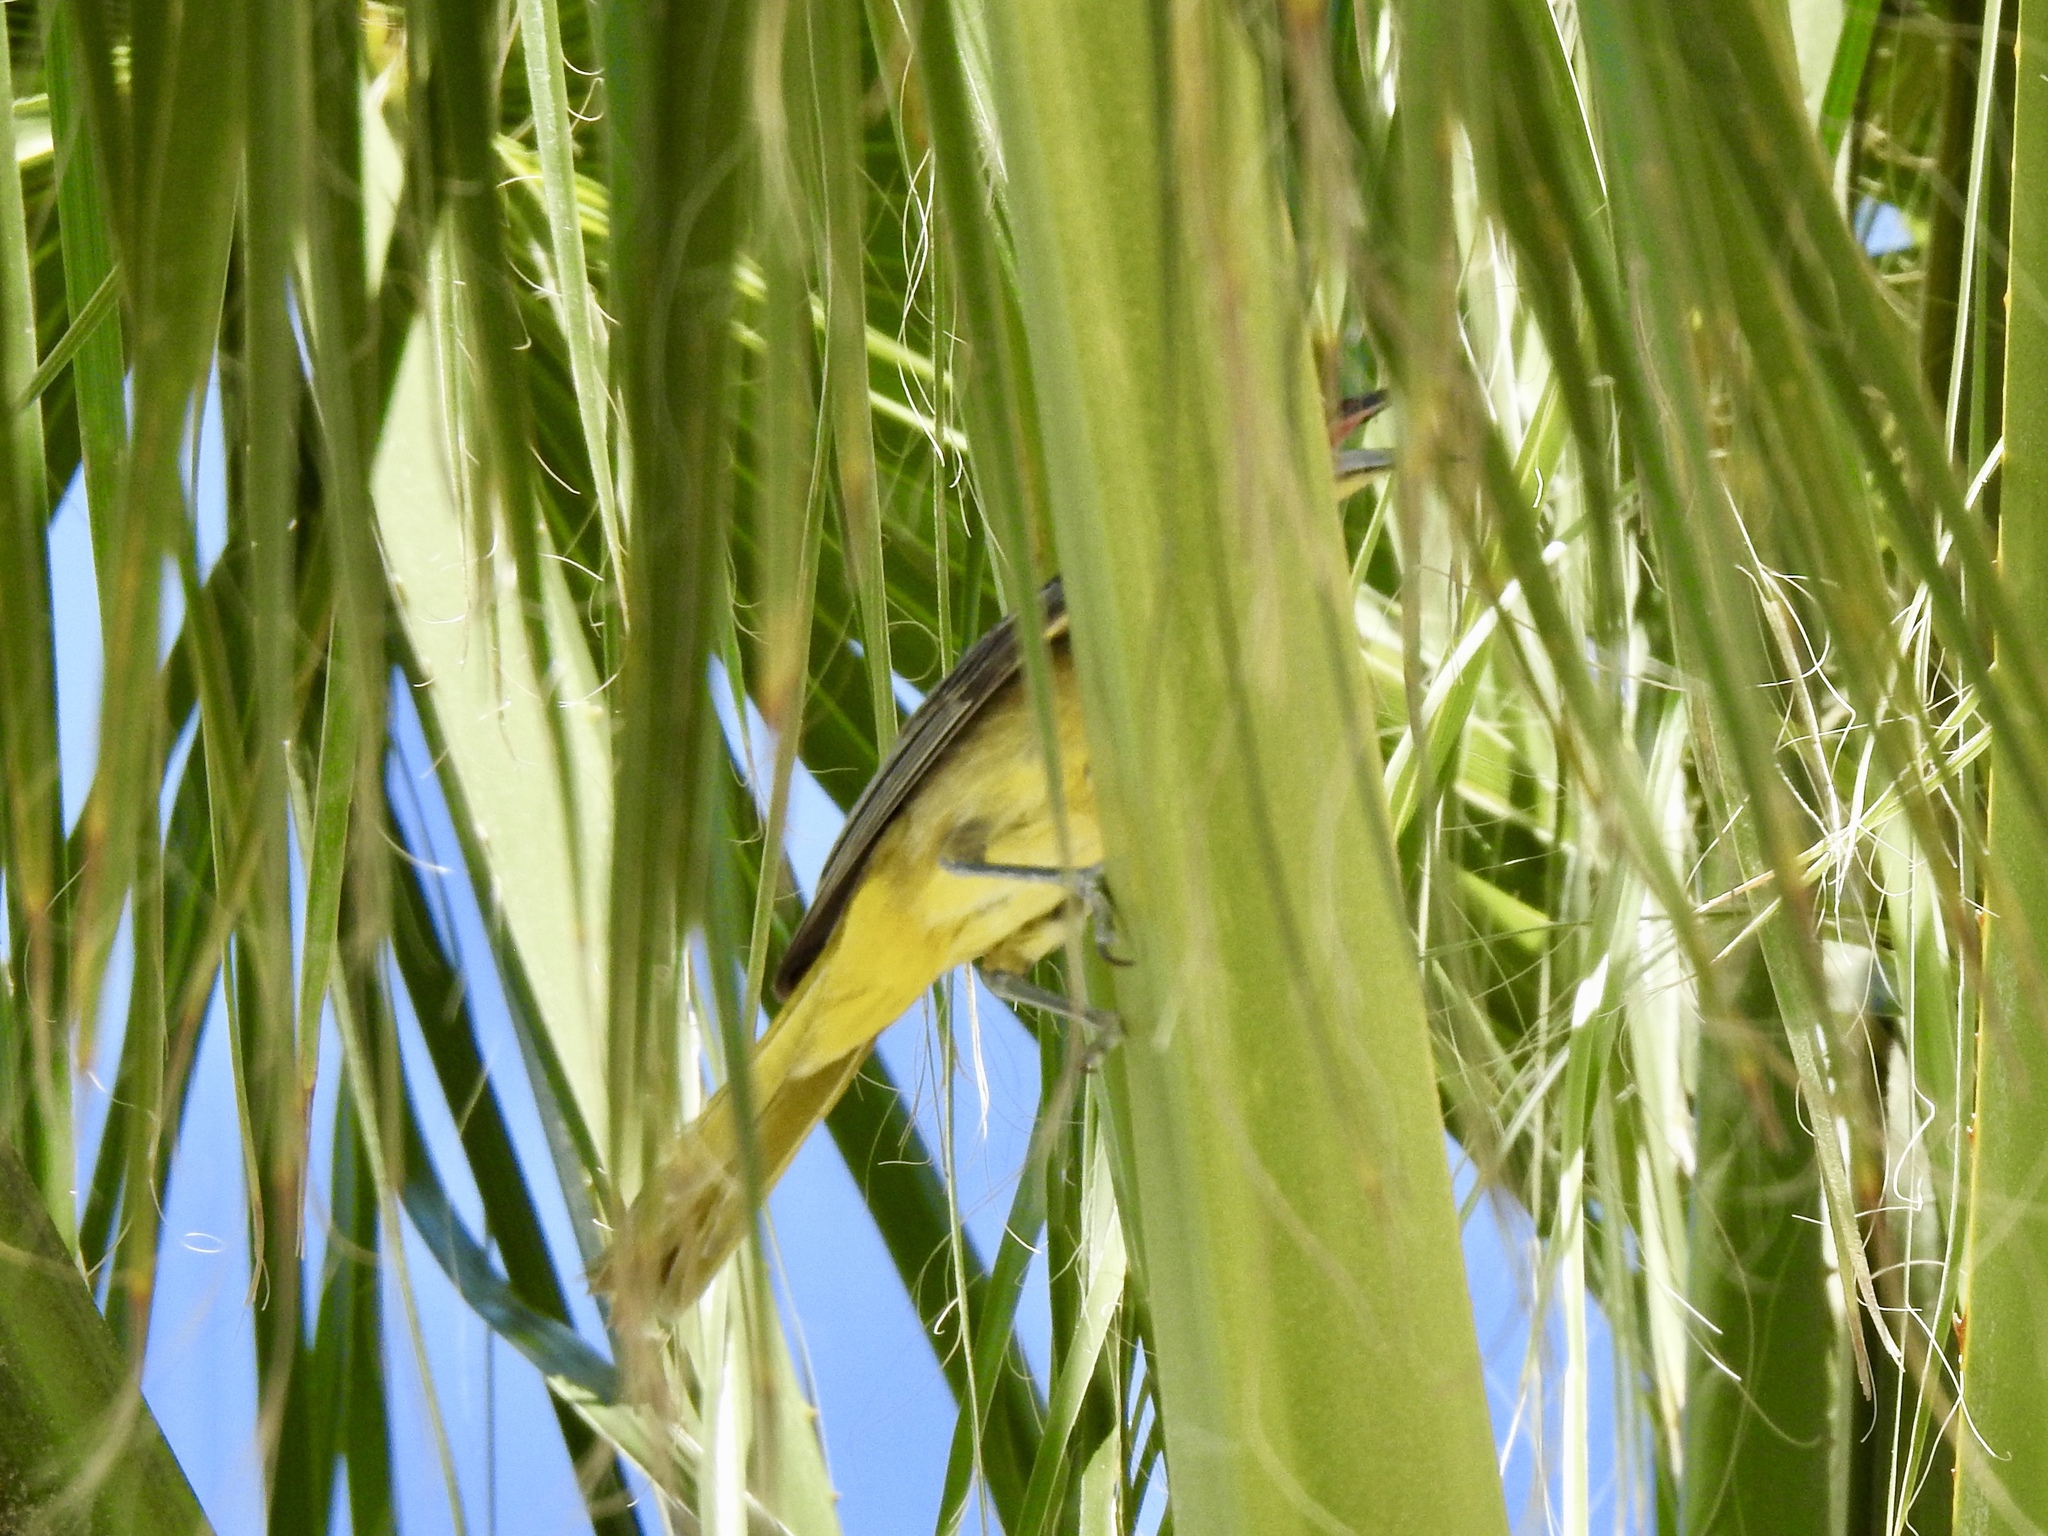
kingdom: Animalia
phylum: Chordata
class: Aves
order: Passeriformes
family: Icteridae
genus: Icterus
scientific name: Icterus cucullatus
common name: Hooded oriole
